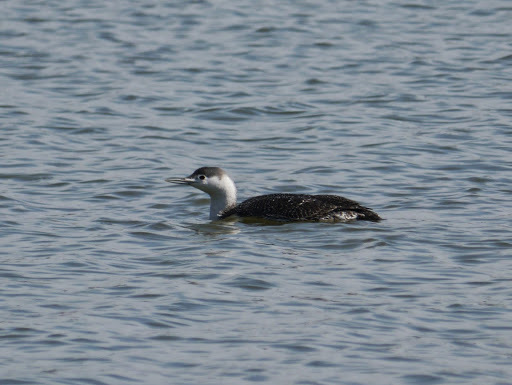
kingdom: Animalia
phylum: Chordata
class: Aves
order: Gaviiformes
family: Gaviidae
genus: Gavia
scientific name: Gavia stellata
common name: Red-throated loon
